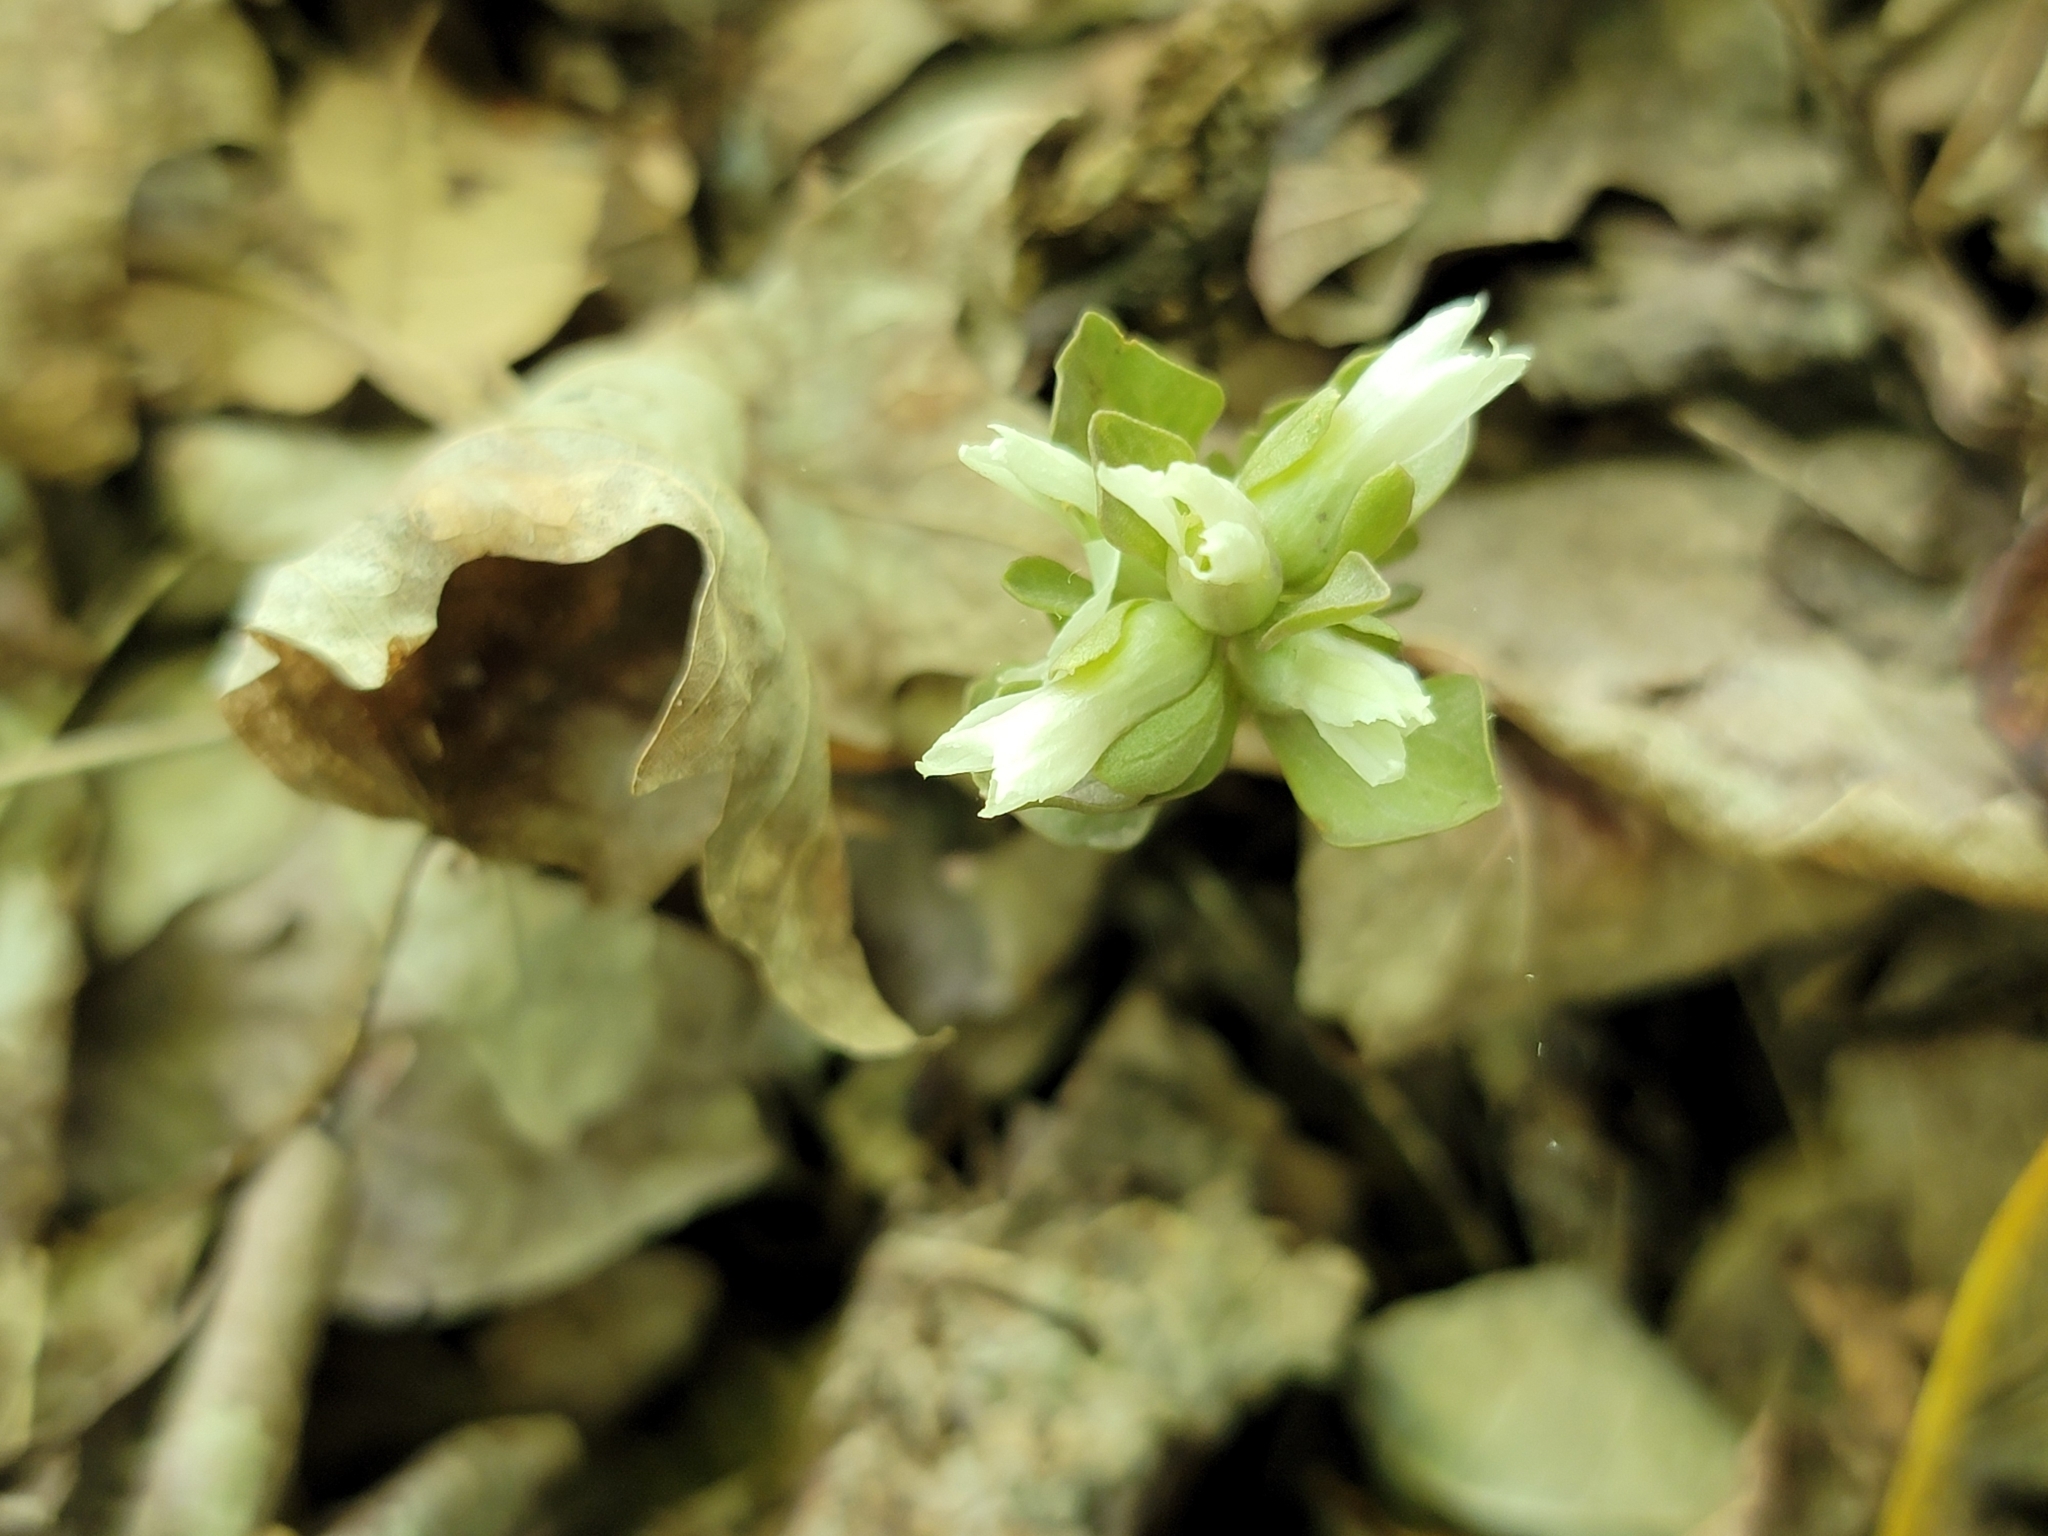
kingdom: Plantae
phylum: Tracheophyta
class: Magnoliopsida
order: Gentianales
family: Gentianaceae
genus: Obolaria
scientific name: Obolaria virginica
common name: Pennywort
